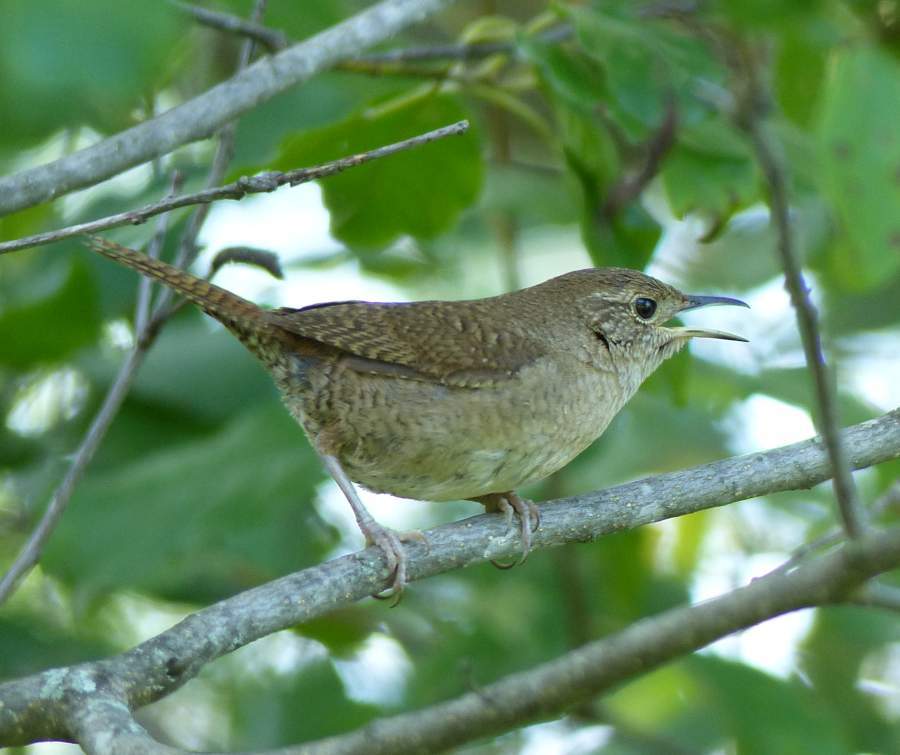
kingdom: Animalia
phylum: Chordata
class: Aves
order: Passeriformes
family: Troglodytidae
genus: Troglodytes
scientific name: Troglodytes aedon
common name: House wren
